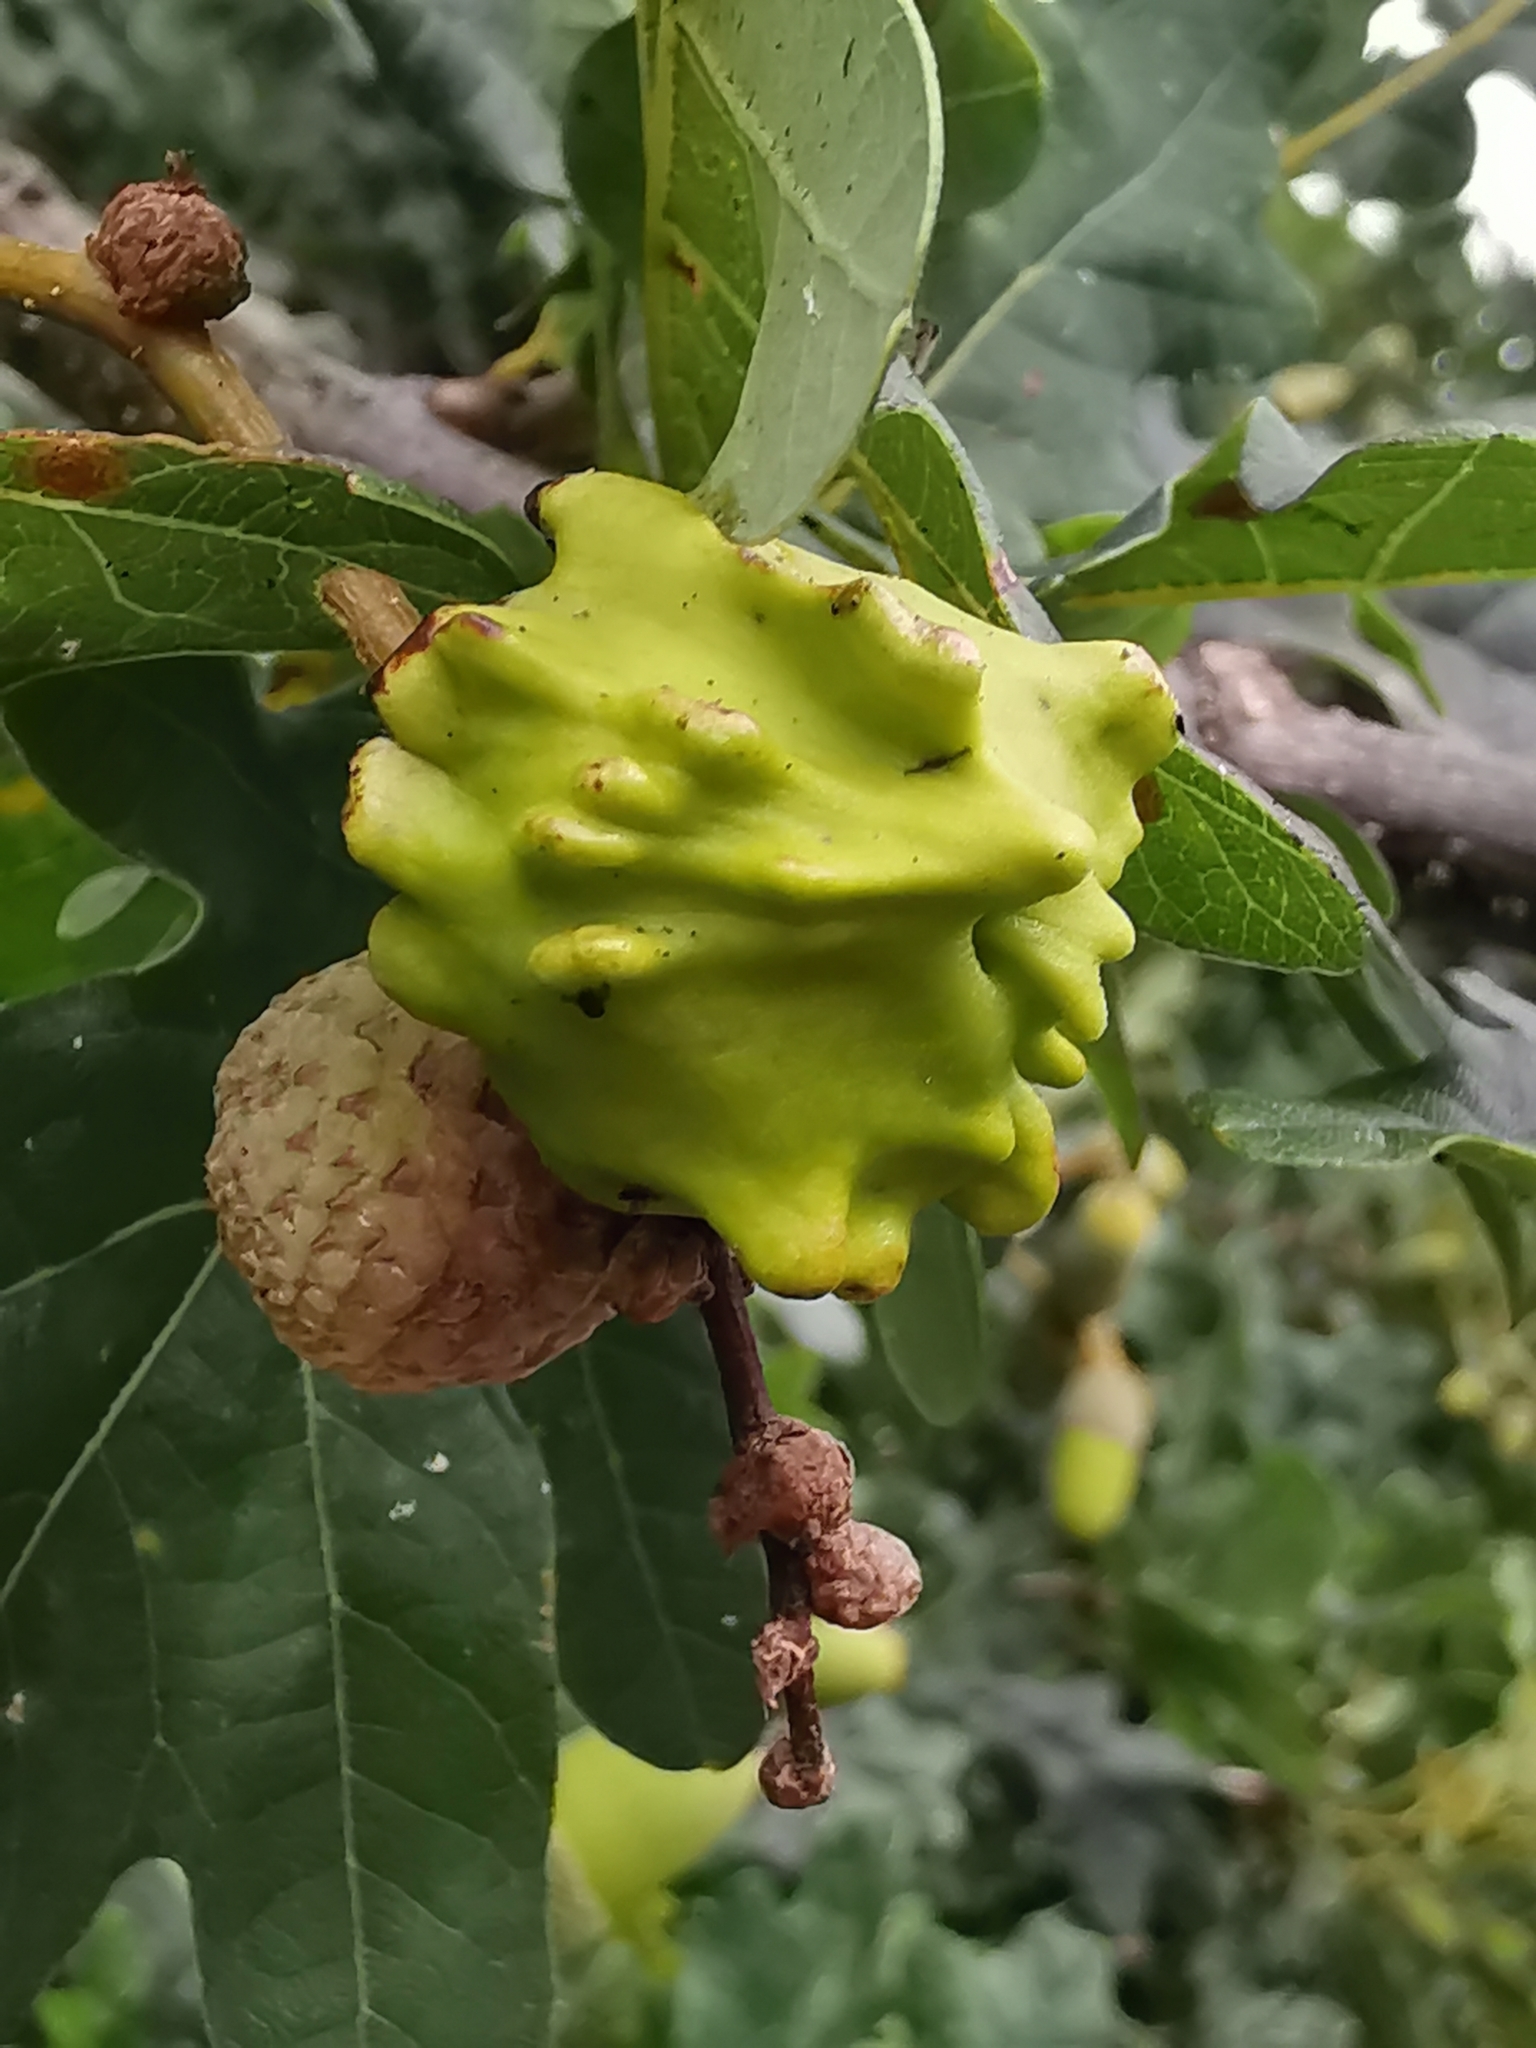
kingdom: Animalia
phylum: Arthropoda
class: Insecta
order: Hymenoptera
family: Cynipidae
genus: Andricus
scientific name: Andricus quercuscalicis
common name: Knopper gall
